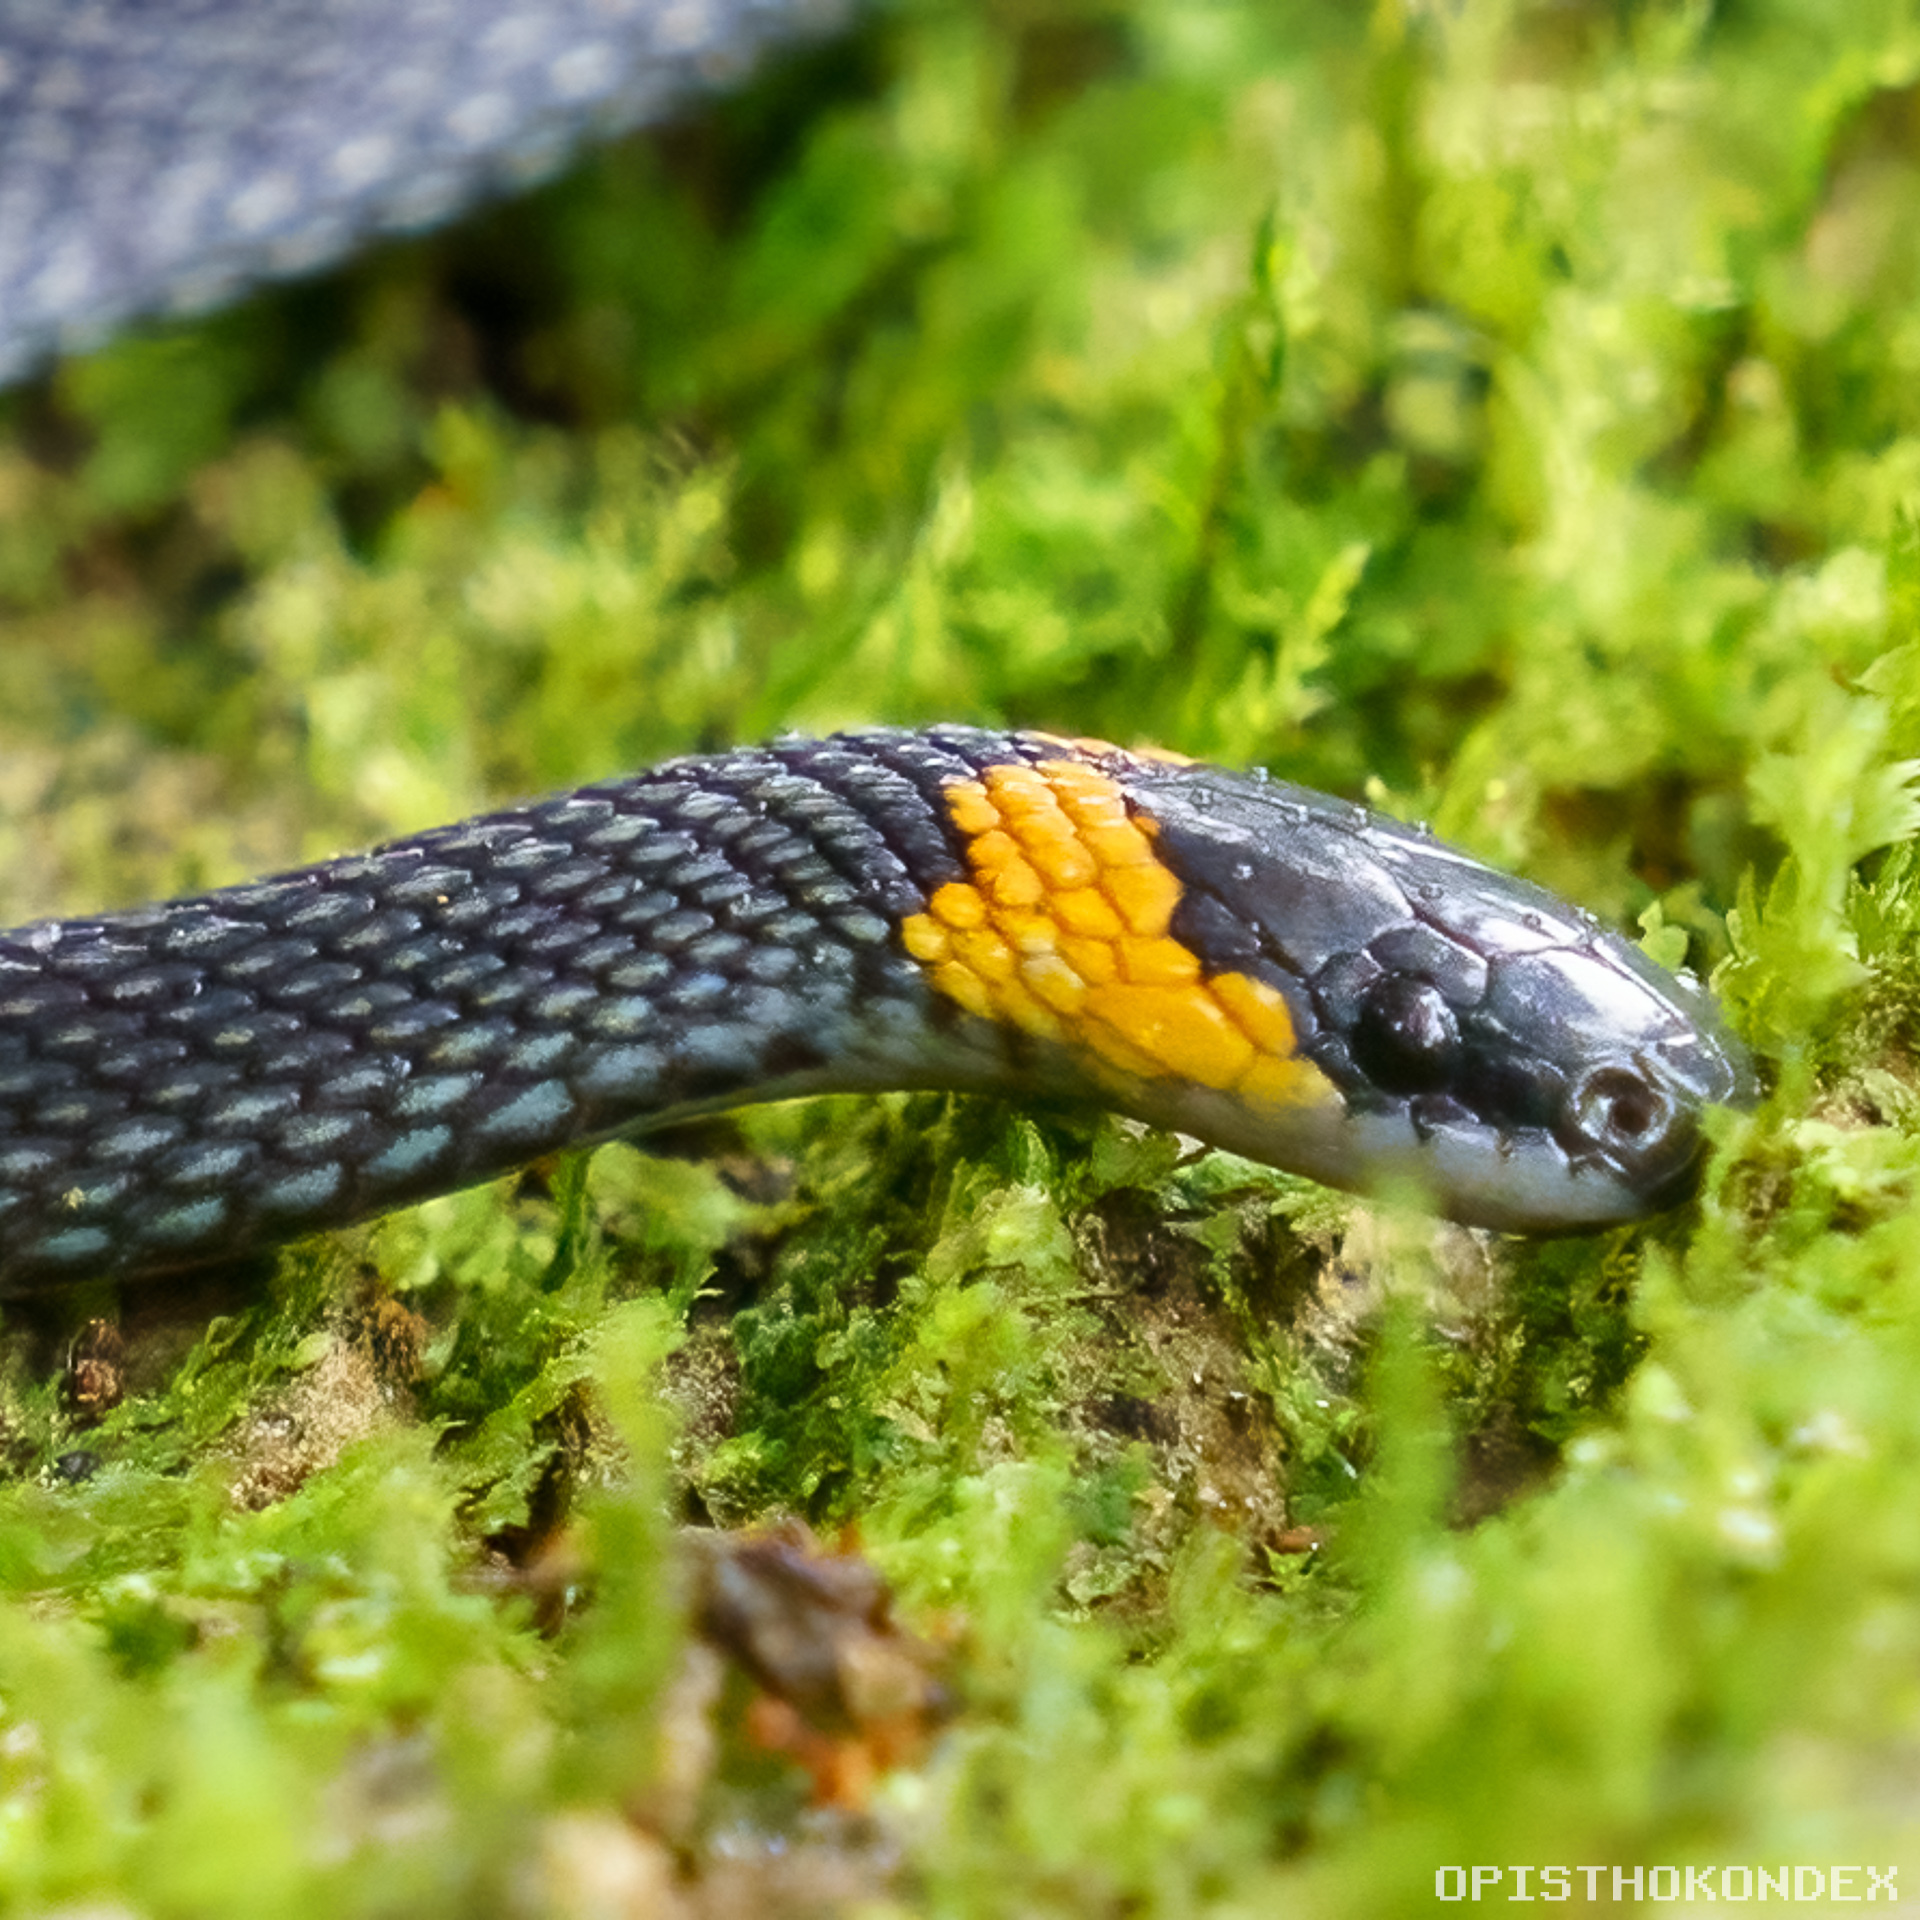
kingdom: Animalia
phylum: Chordata
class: Squamata
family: Colubridae
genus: Ninia
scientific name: Ninia diademata
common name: Ringneck coffee snake
